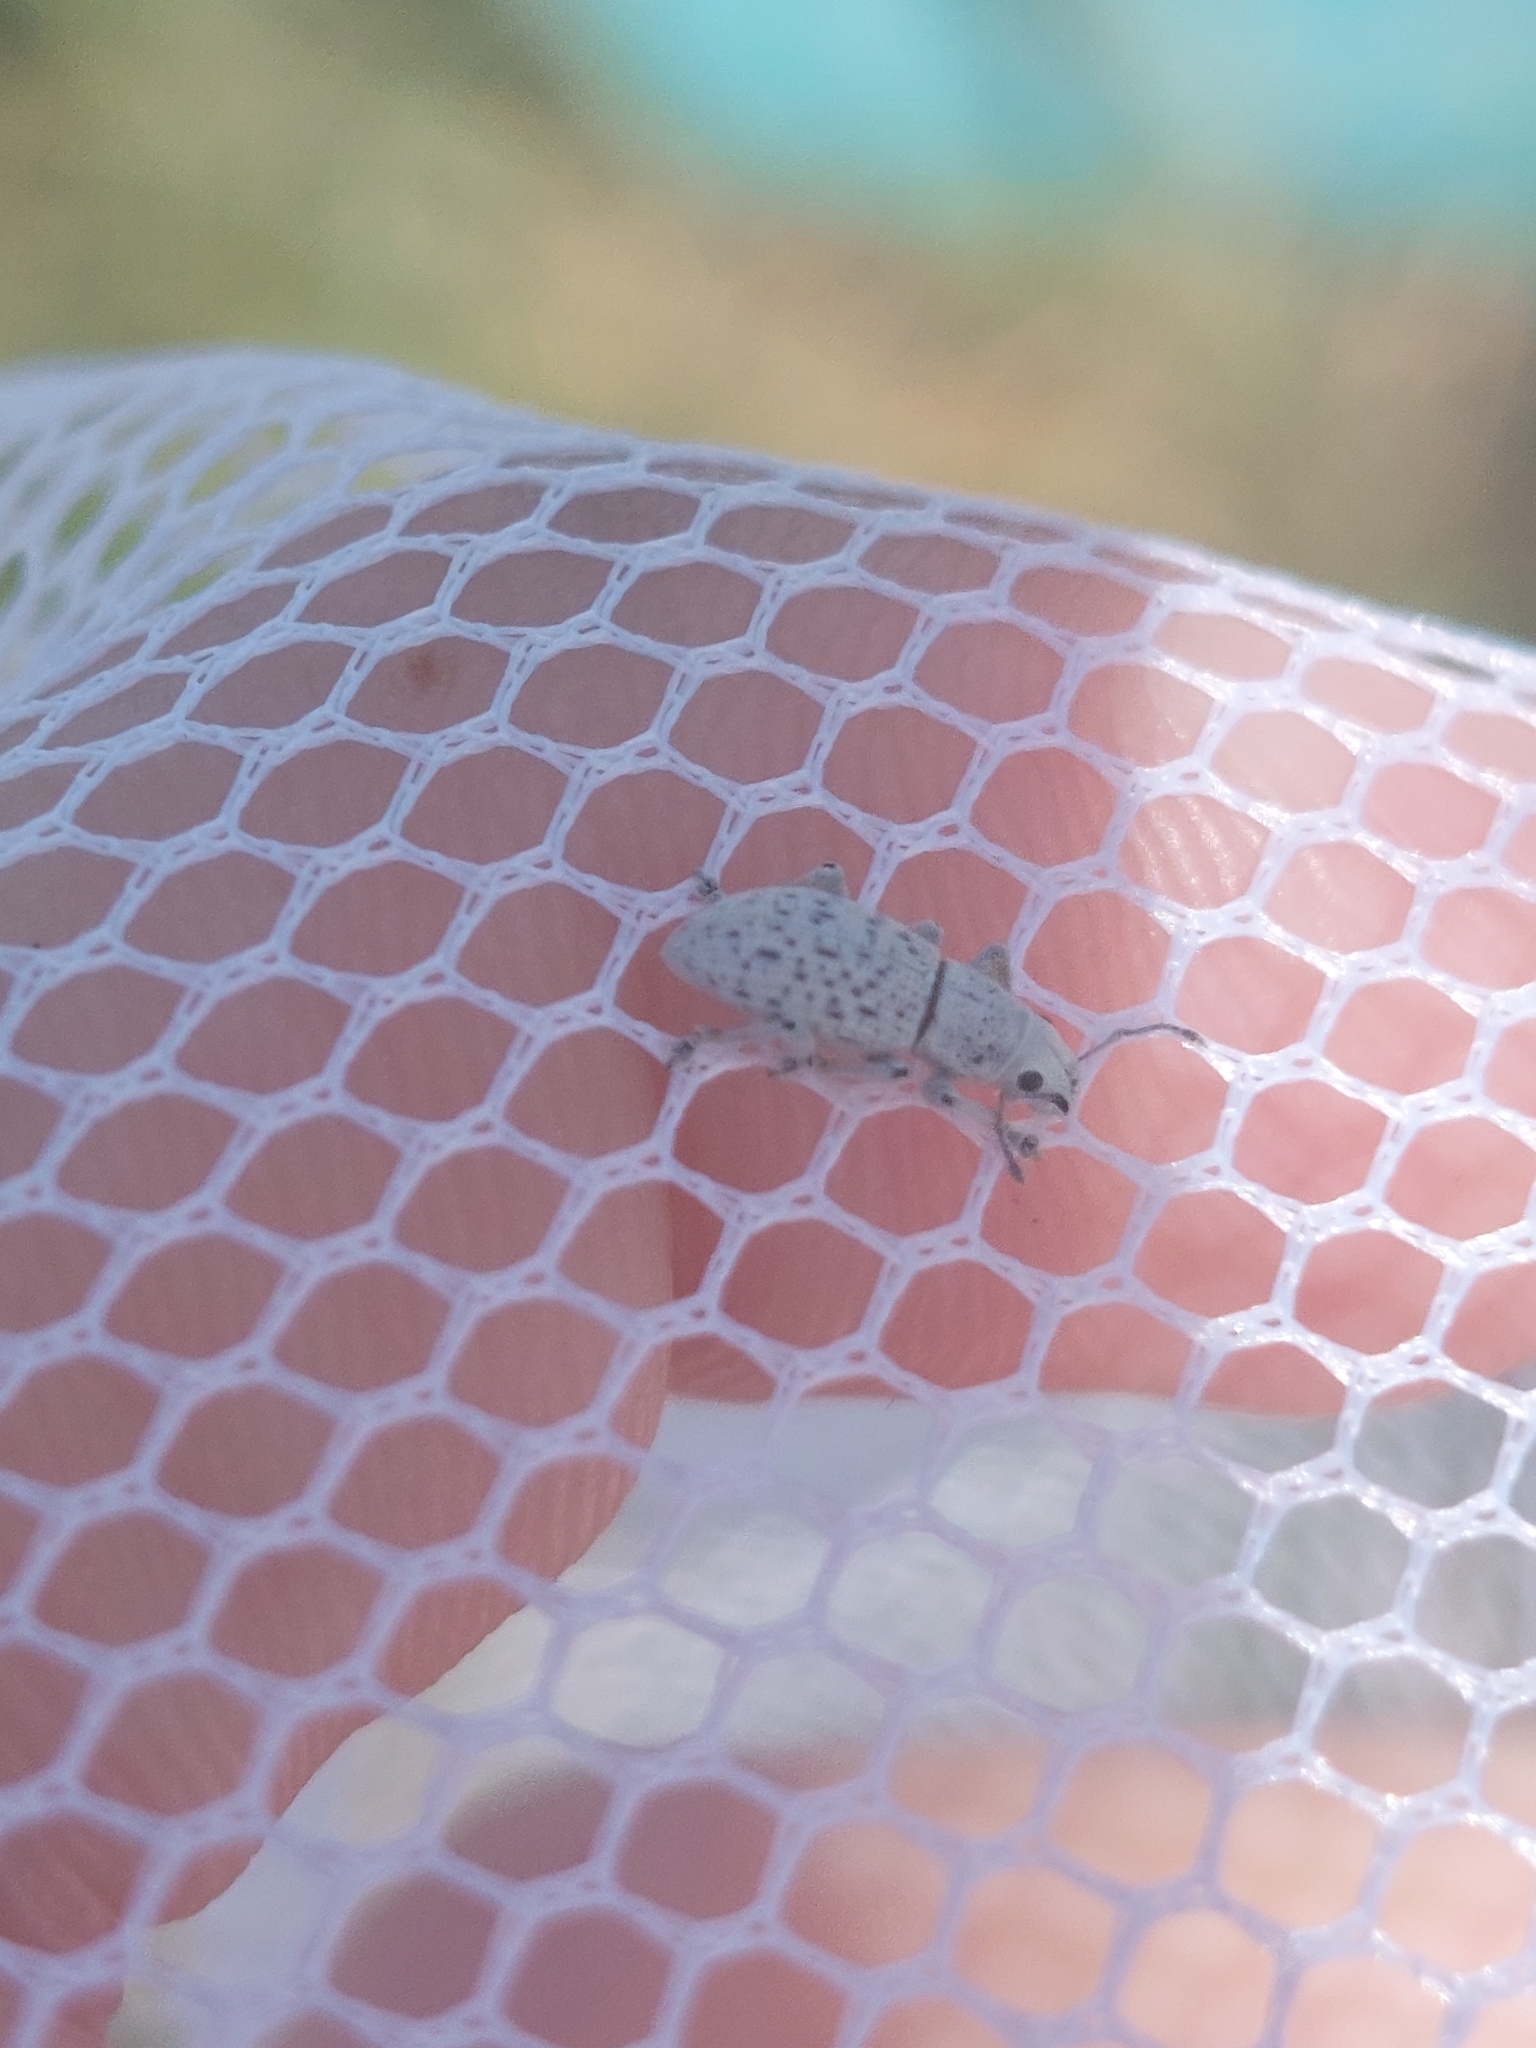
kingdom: Animalia
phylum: Arthropoda
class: Insecta
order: Coleoptera
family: Curculionidae
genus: Artipus
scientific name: Artipus floridanus
